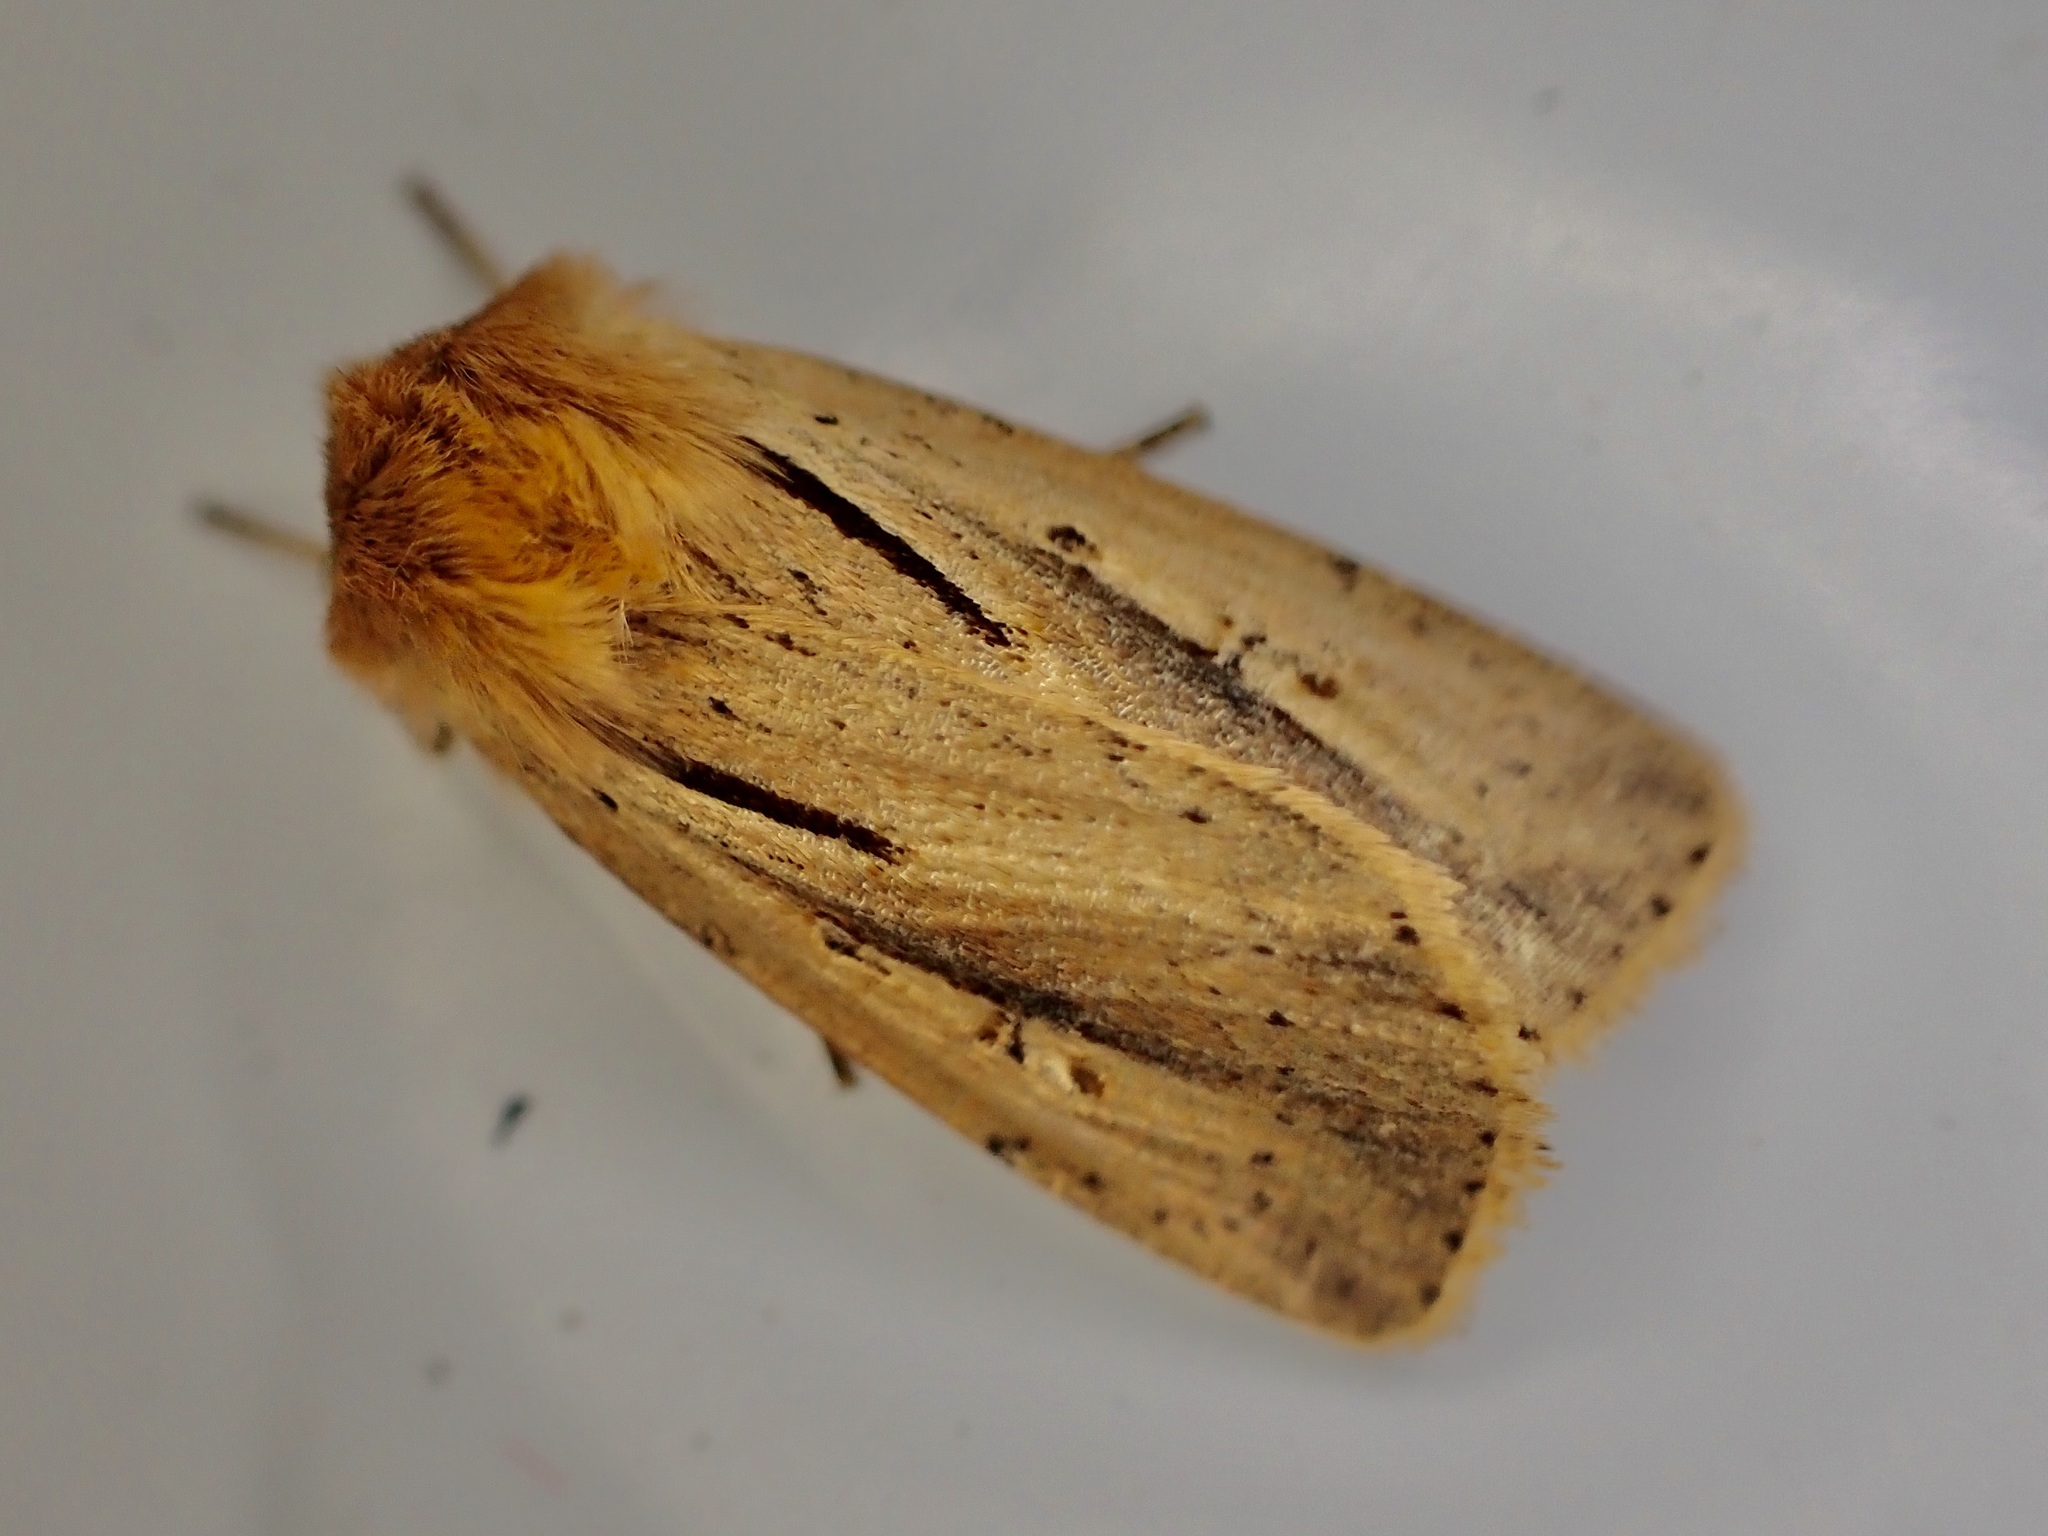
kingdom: Animalia
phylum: Arthropoda
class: Insecta
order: Lepidoptera
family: Noctuidae
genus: Ichneutica
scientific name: Ichneutica propria
